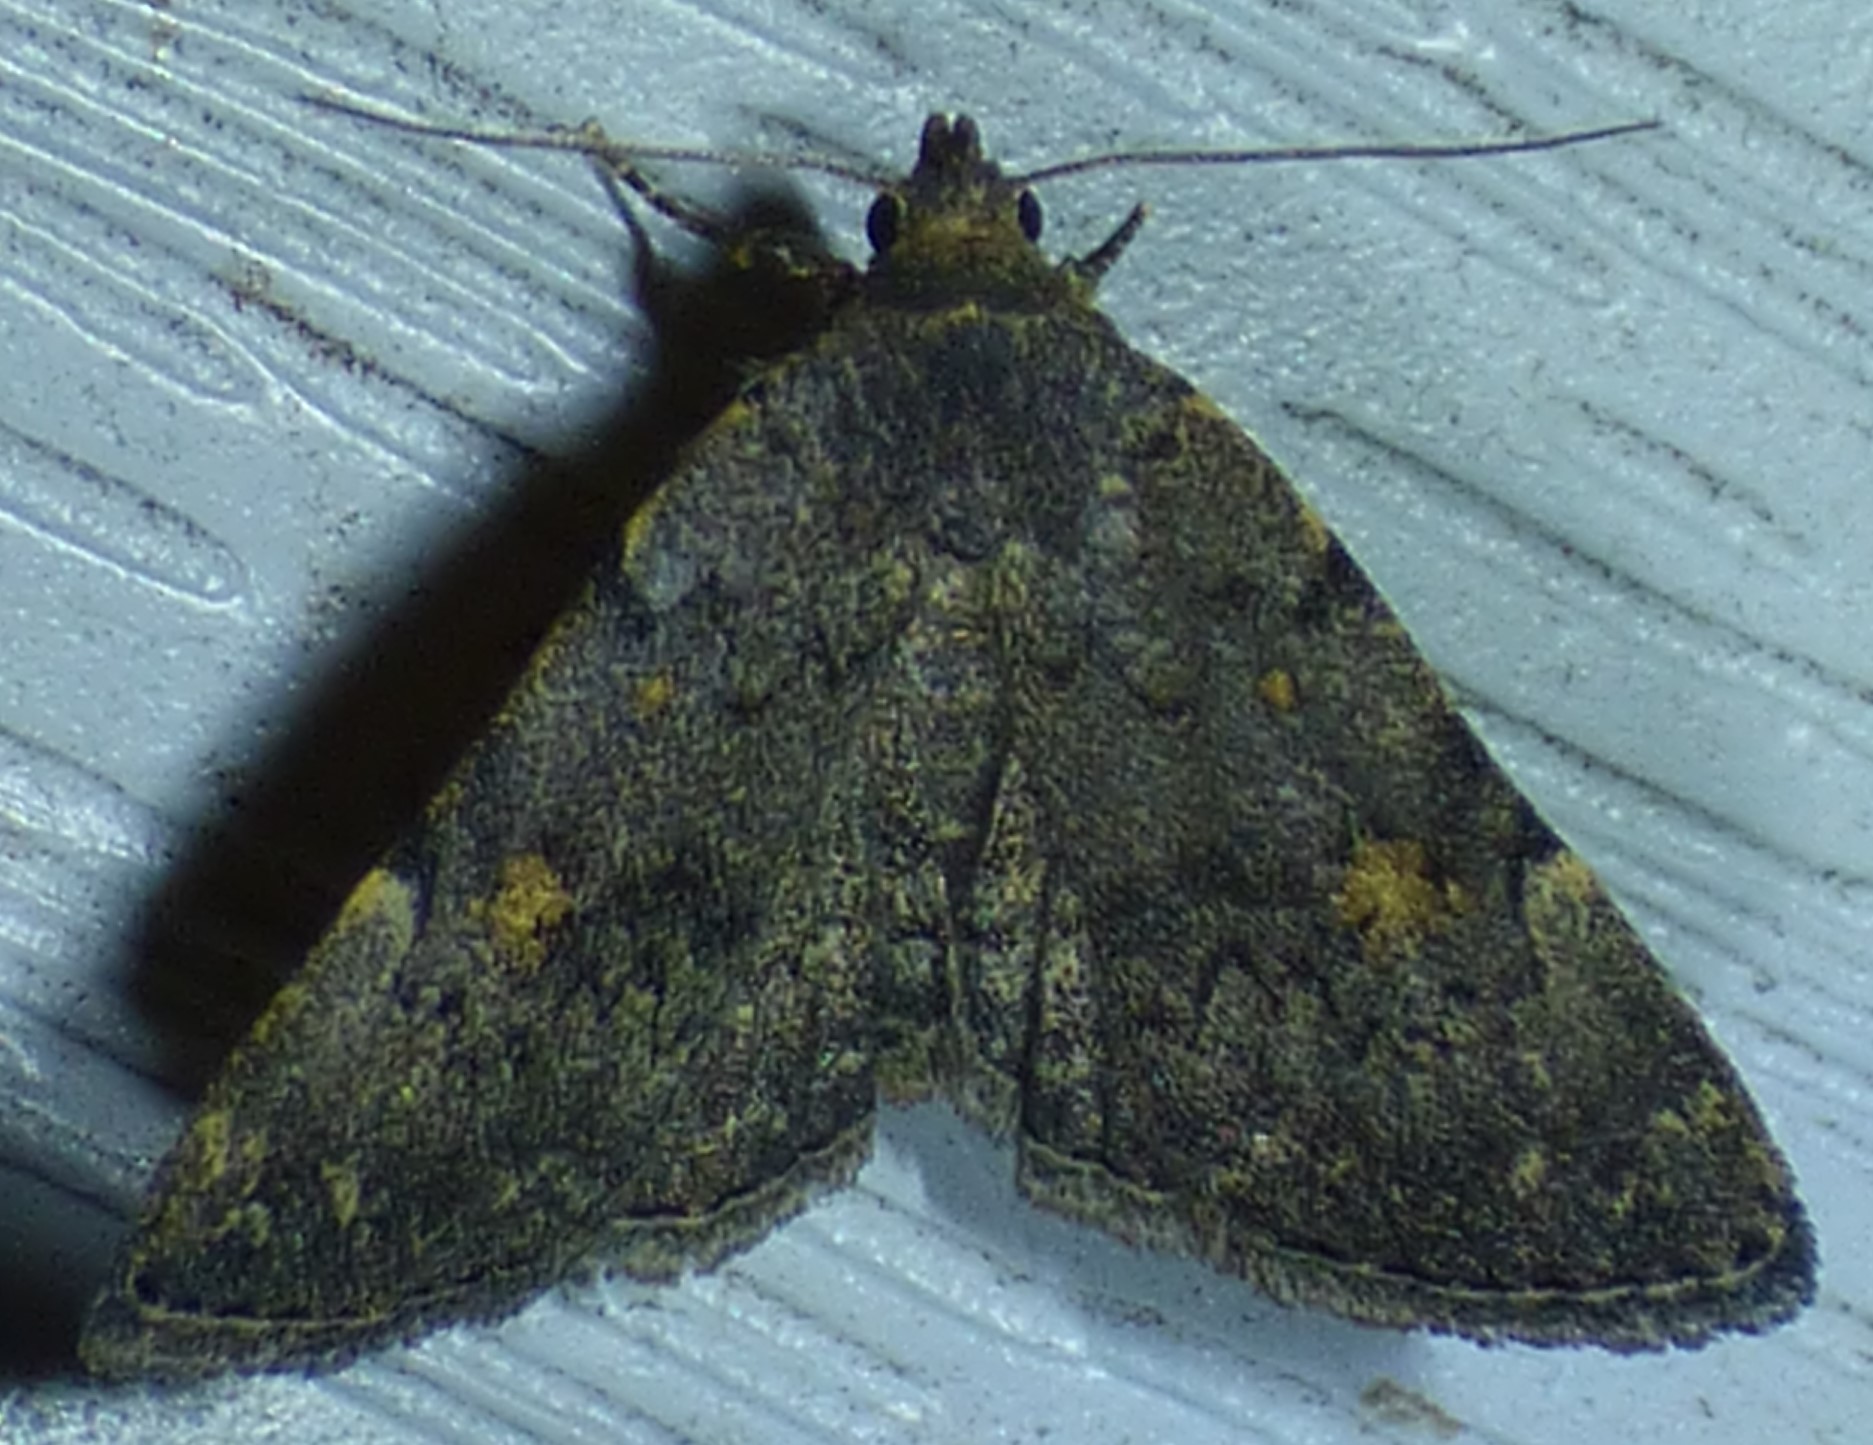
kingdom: Animalia
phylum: Arthropoda
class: Insecta
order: Lepidoptera
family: Erebidae
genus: Idia
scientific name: Idia aemula
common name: Common idia moth
